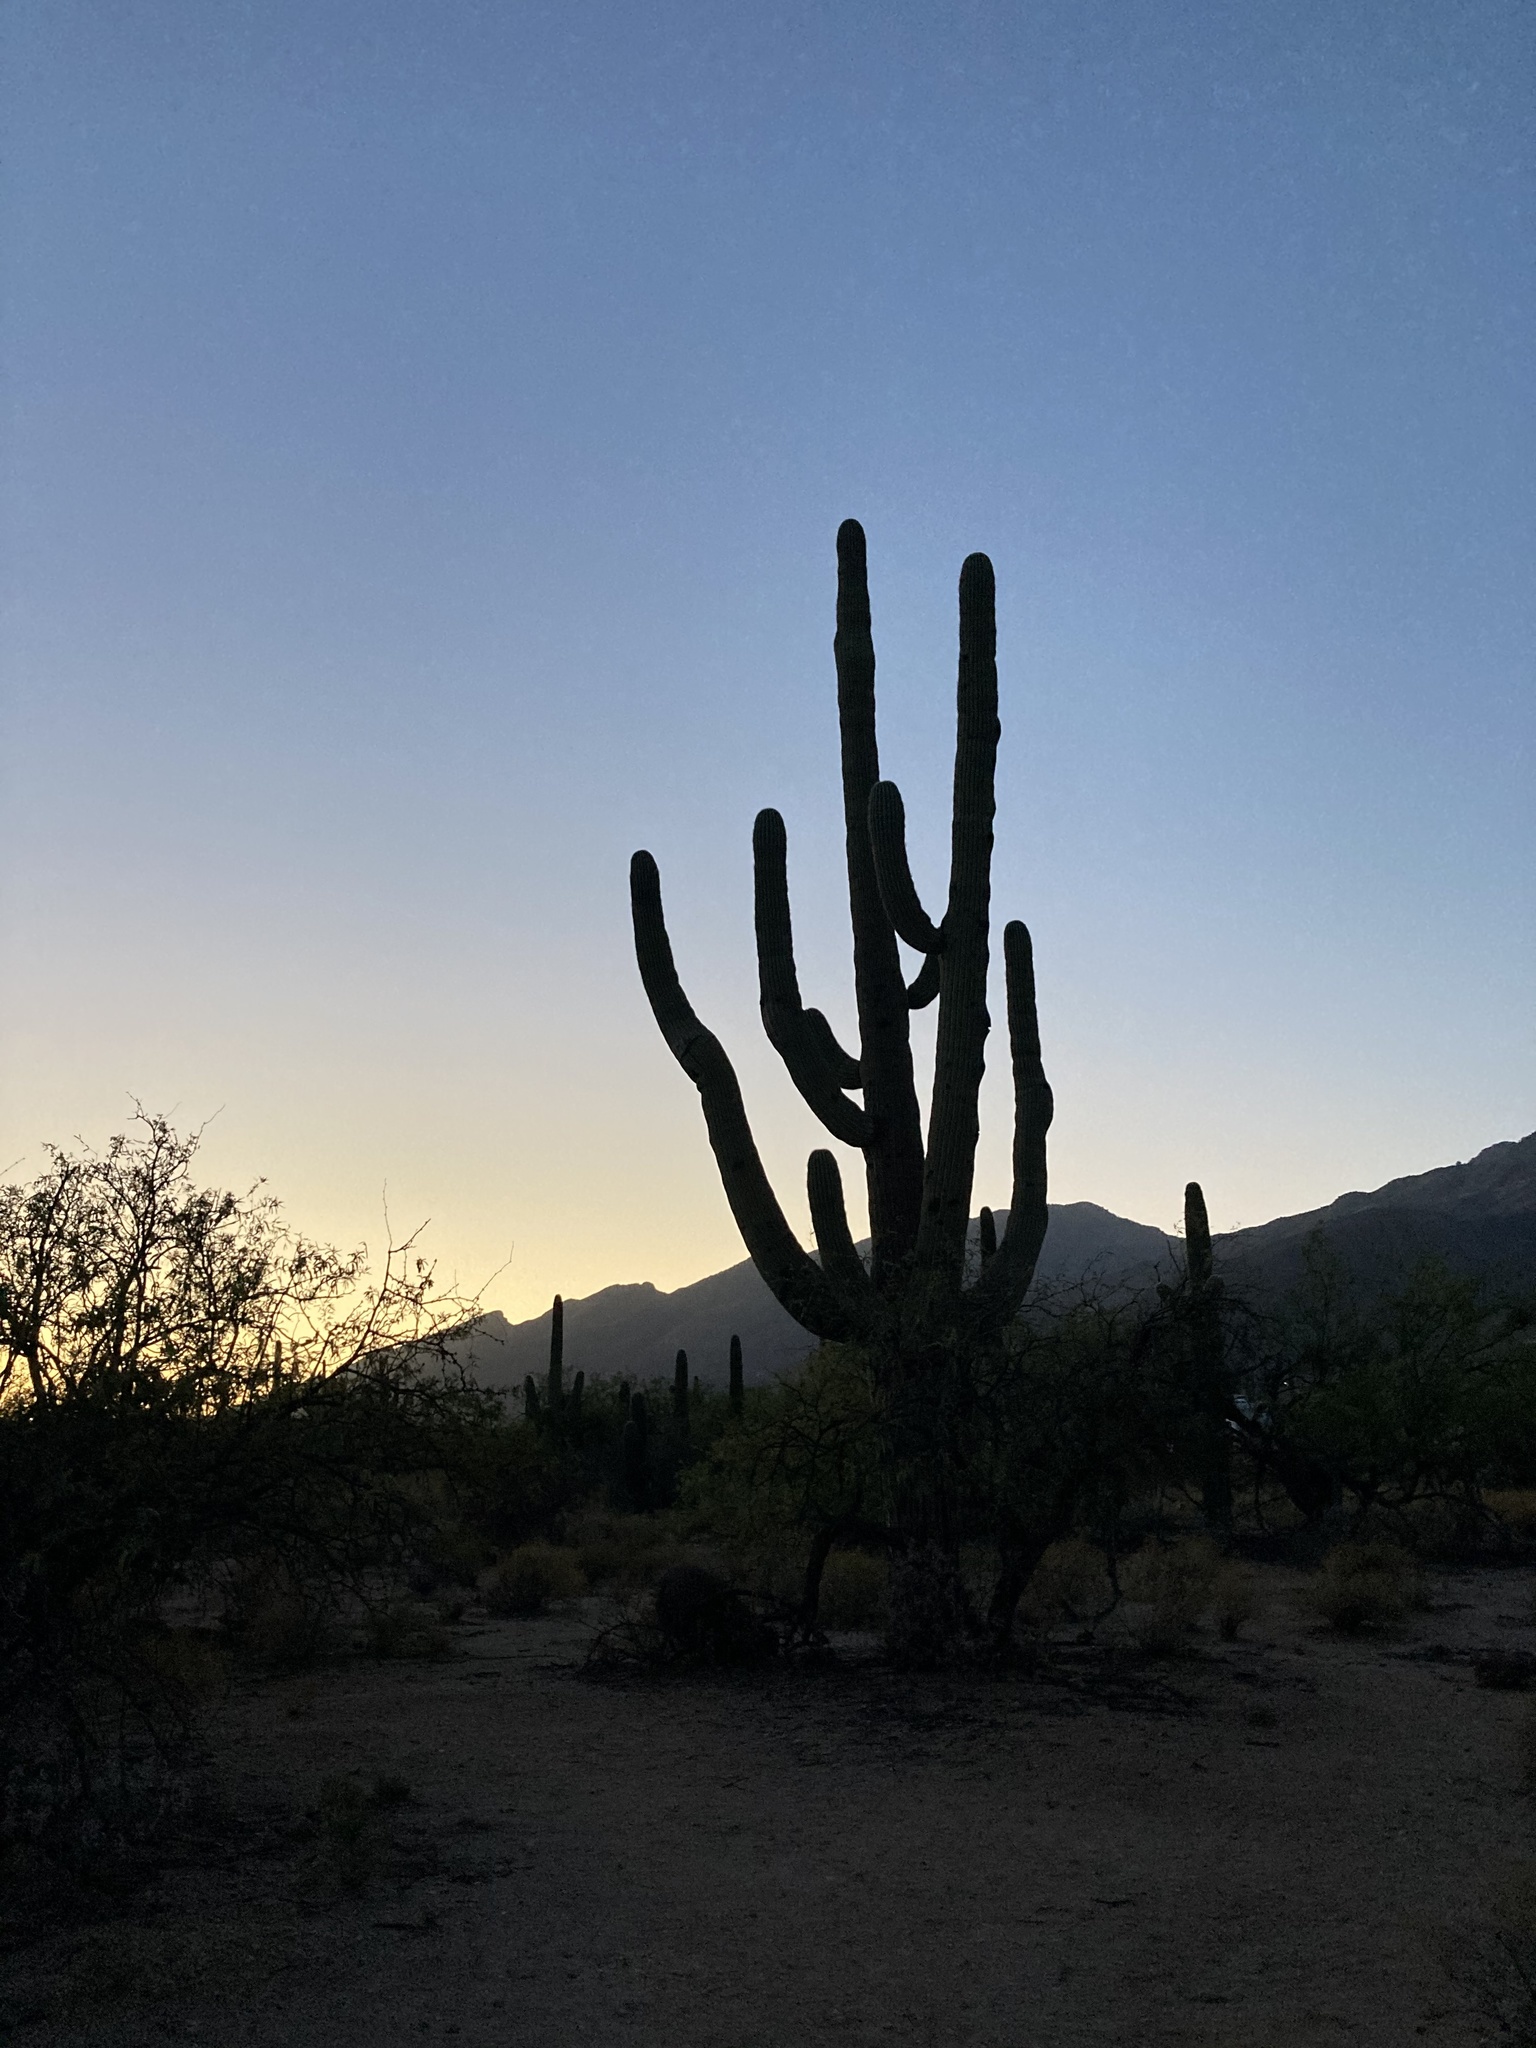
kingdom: Plantae
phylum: Tracheophyta
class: Magnoliopsida
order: Caryophyllales
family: Cactaceae
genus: Carnegiea
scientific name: Carnegiea gigantea
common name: Saguaro
